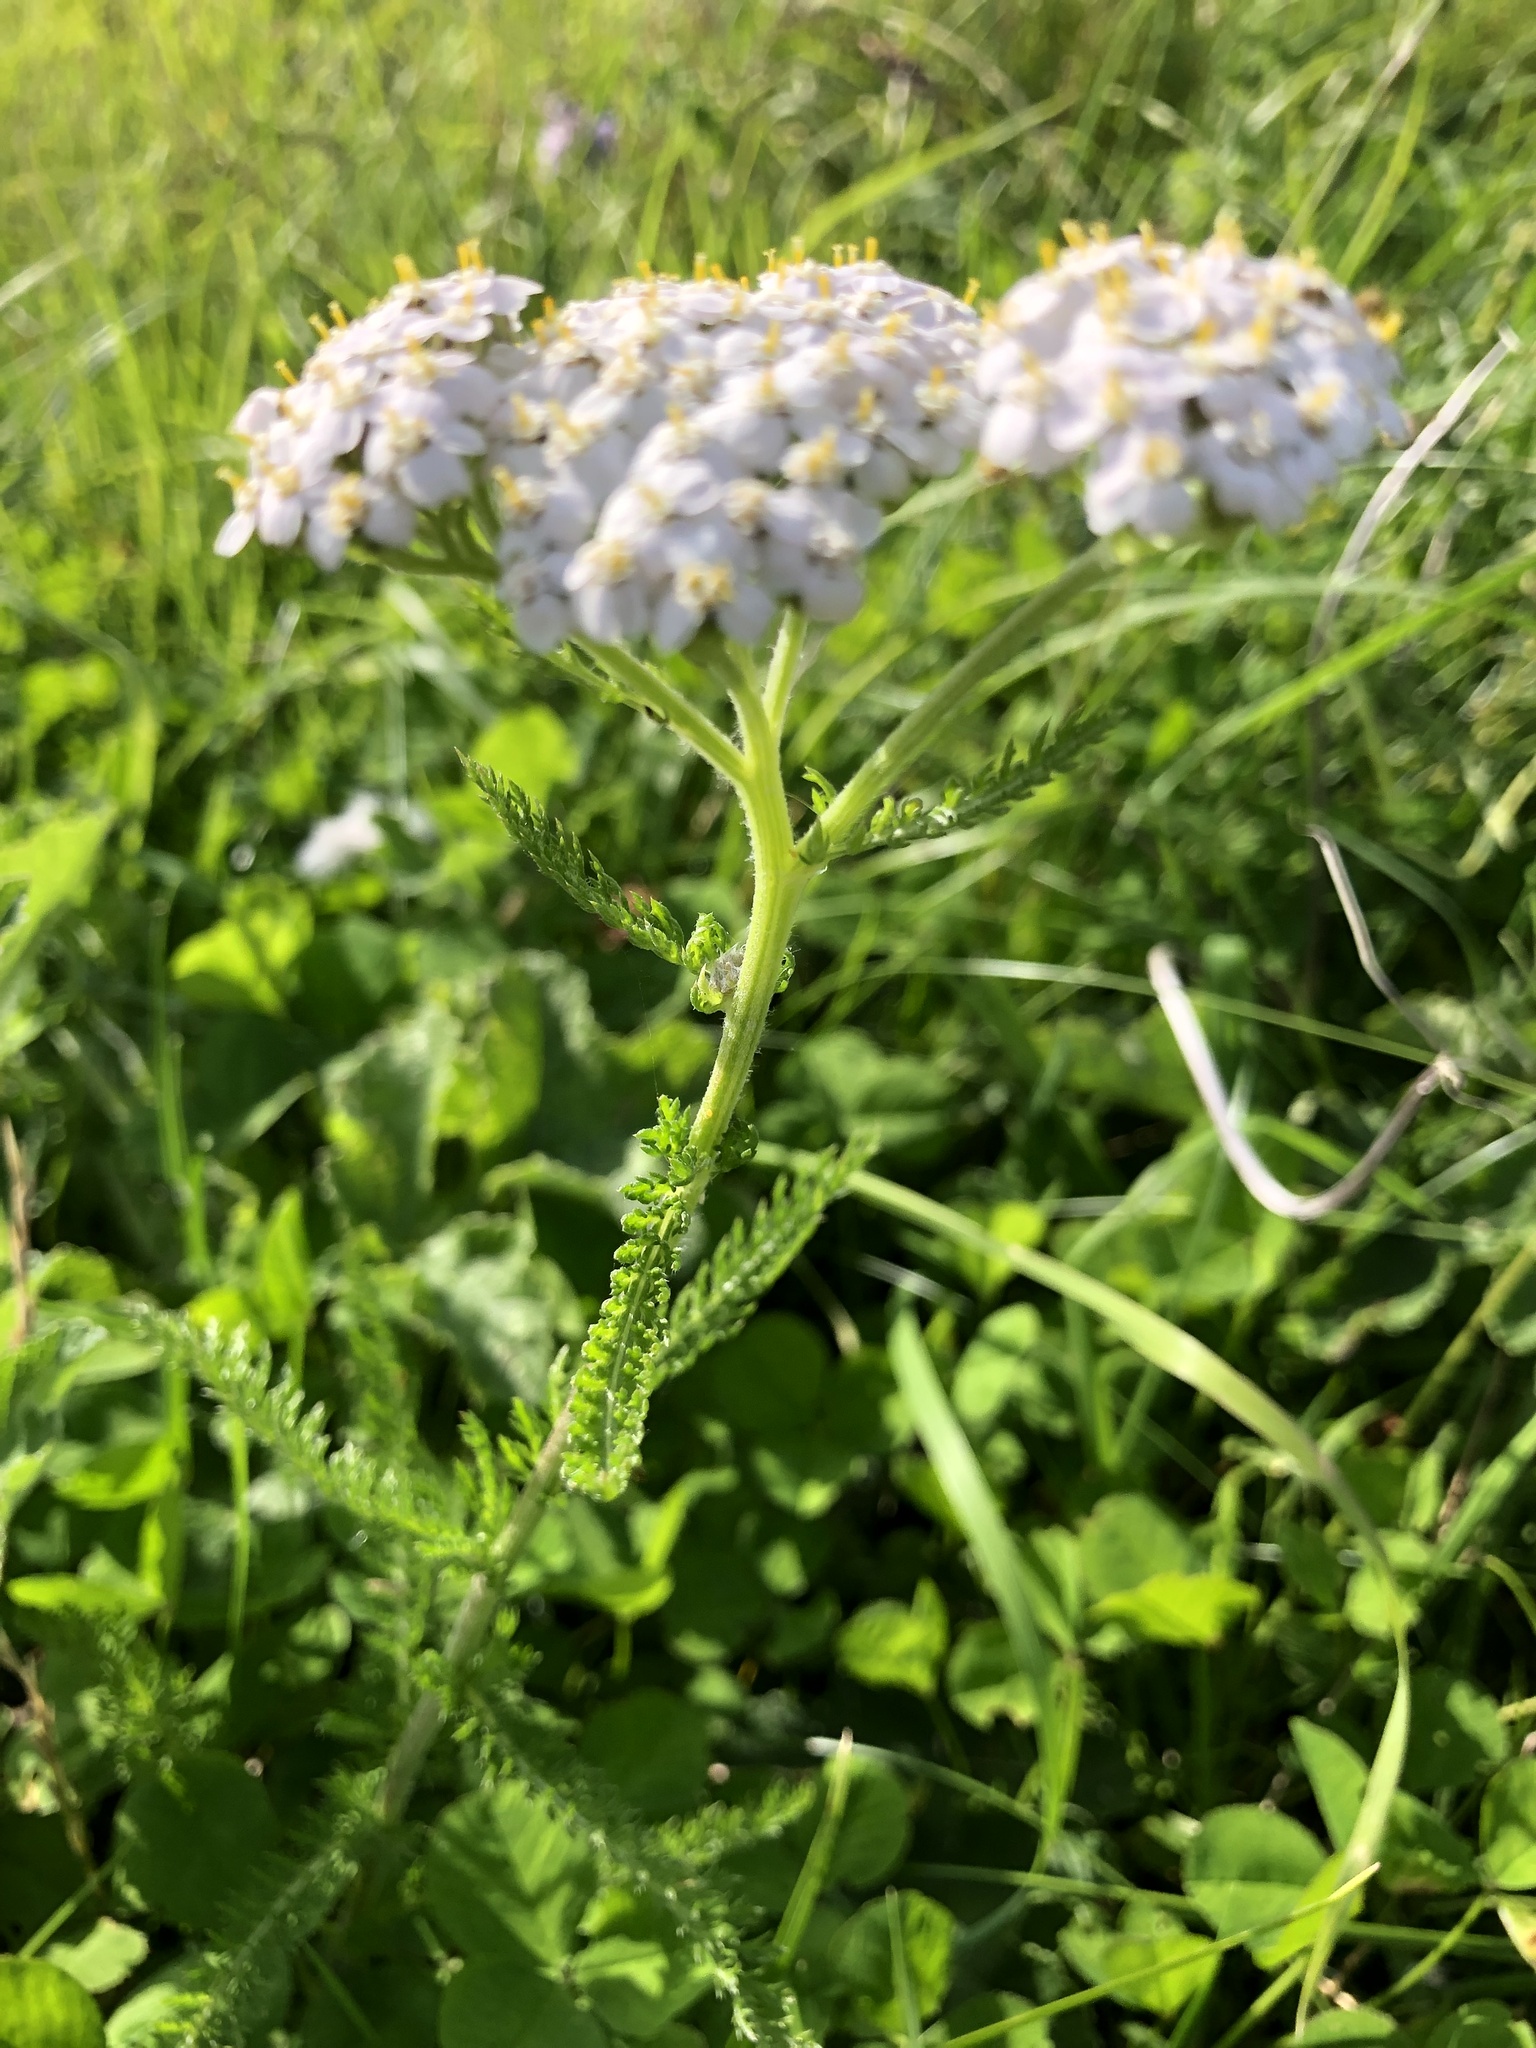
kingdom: Plantae
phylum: Tracheophyta
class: Magnoliopsida
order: Asterales
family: Asteraceae
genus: Achillea
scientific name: Achillea millefolium
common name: Yarrow
